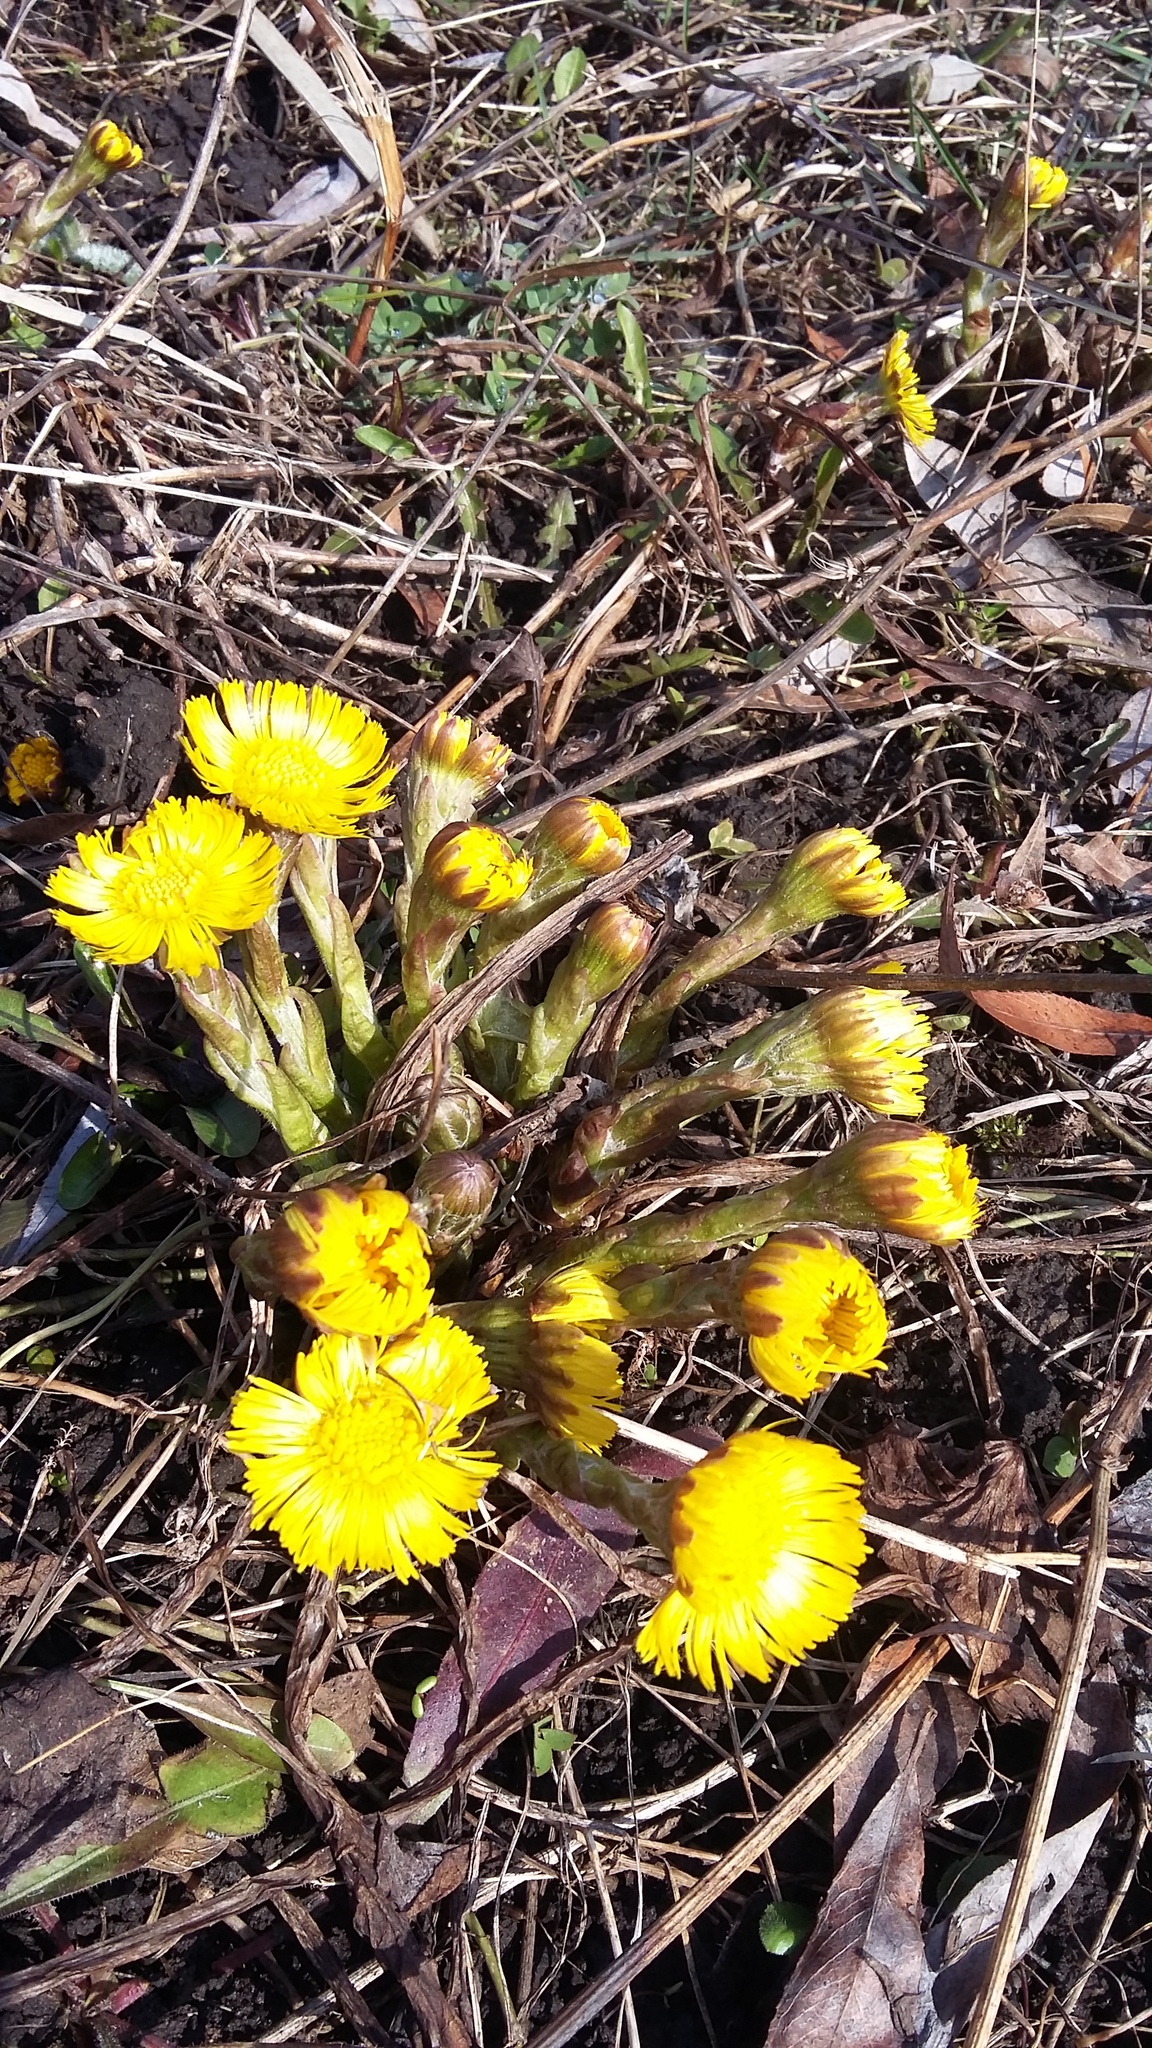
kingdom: Plantae
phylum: Tracheophyta
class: Magnoliopsida
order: Asterales
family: Asteraceae
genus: Tussilago
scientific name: Tussilago farfara
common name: Coltsfoot
